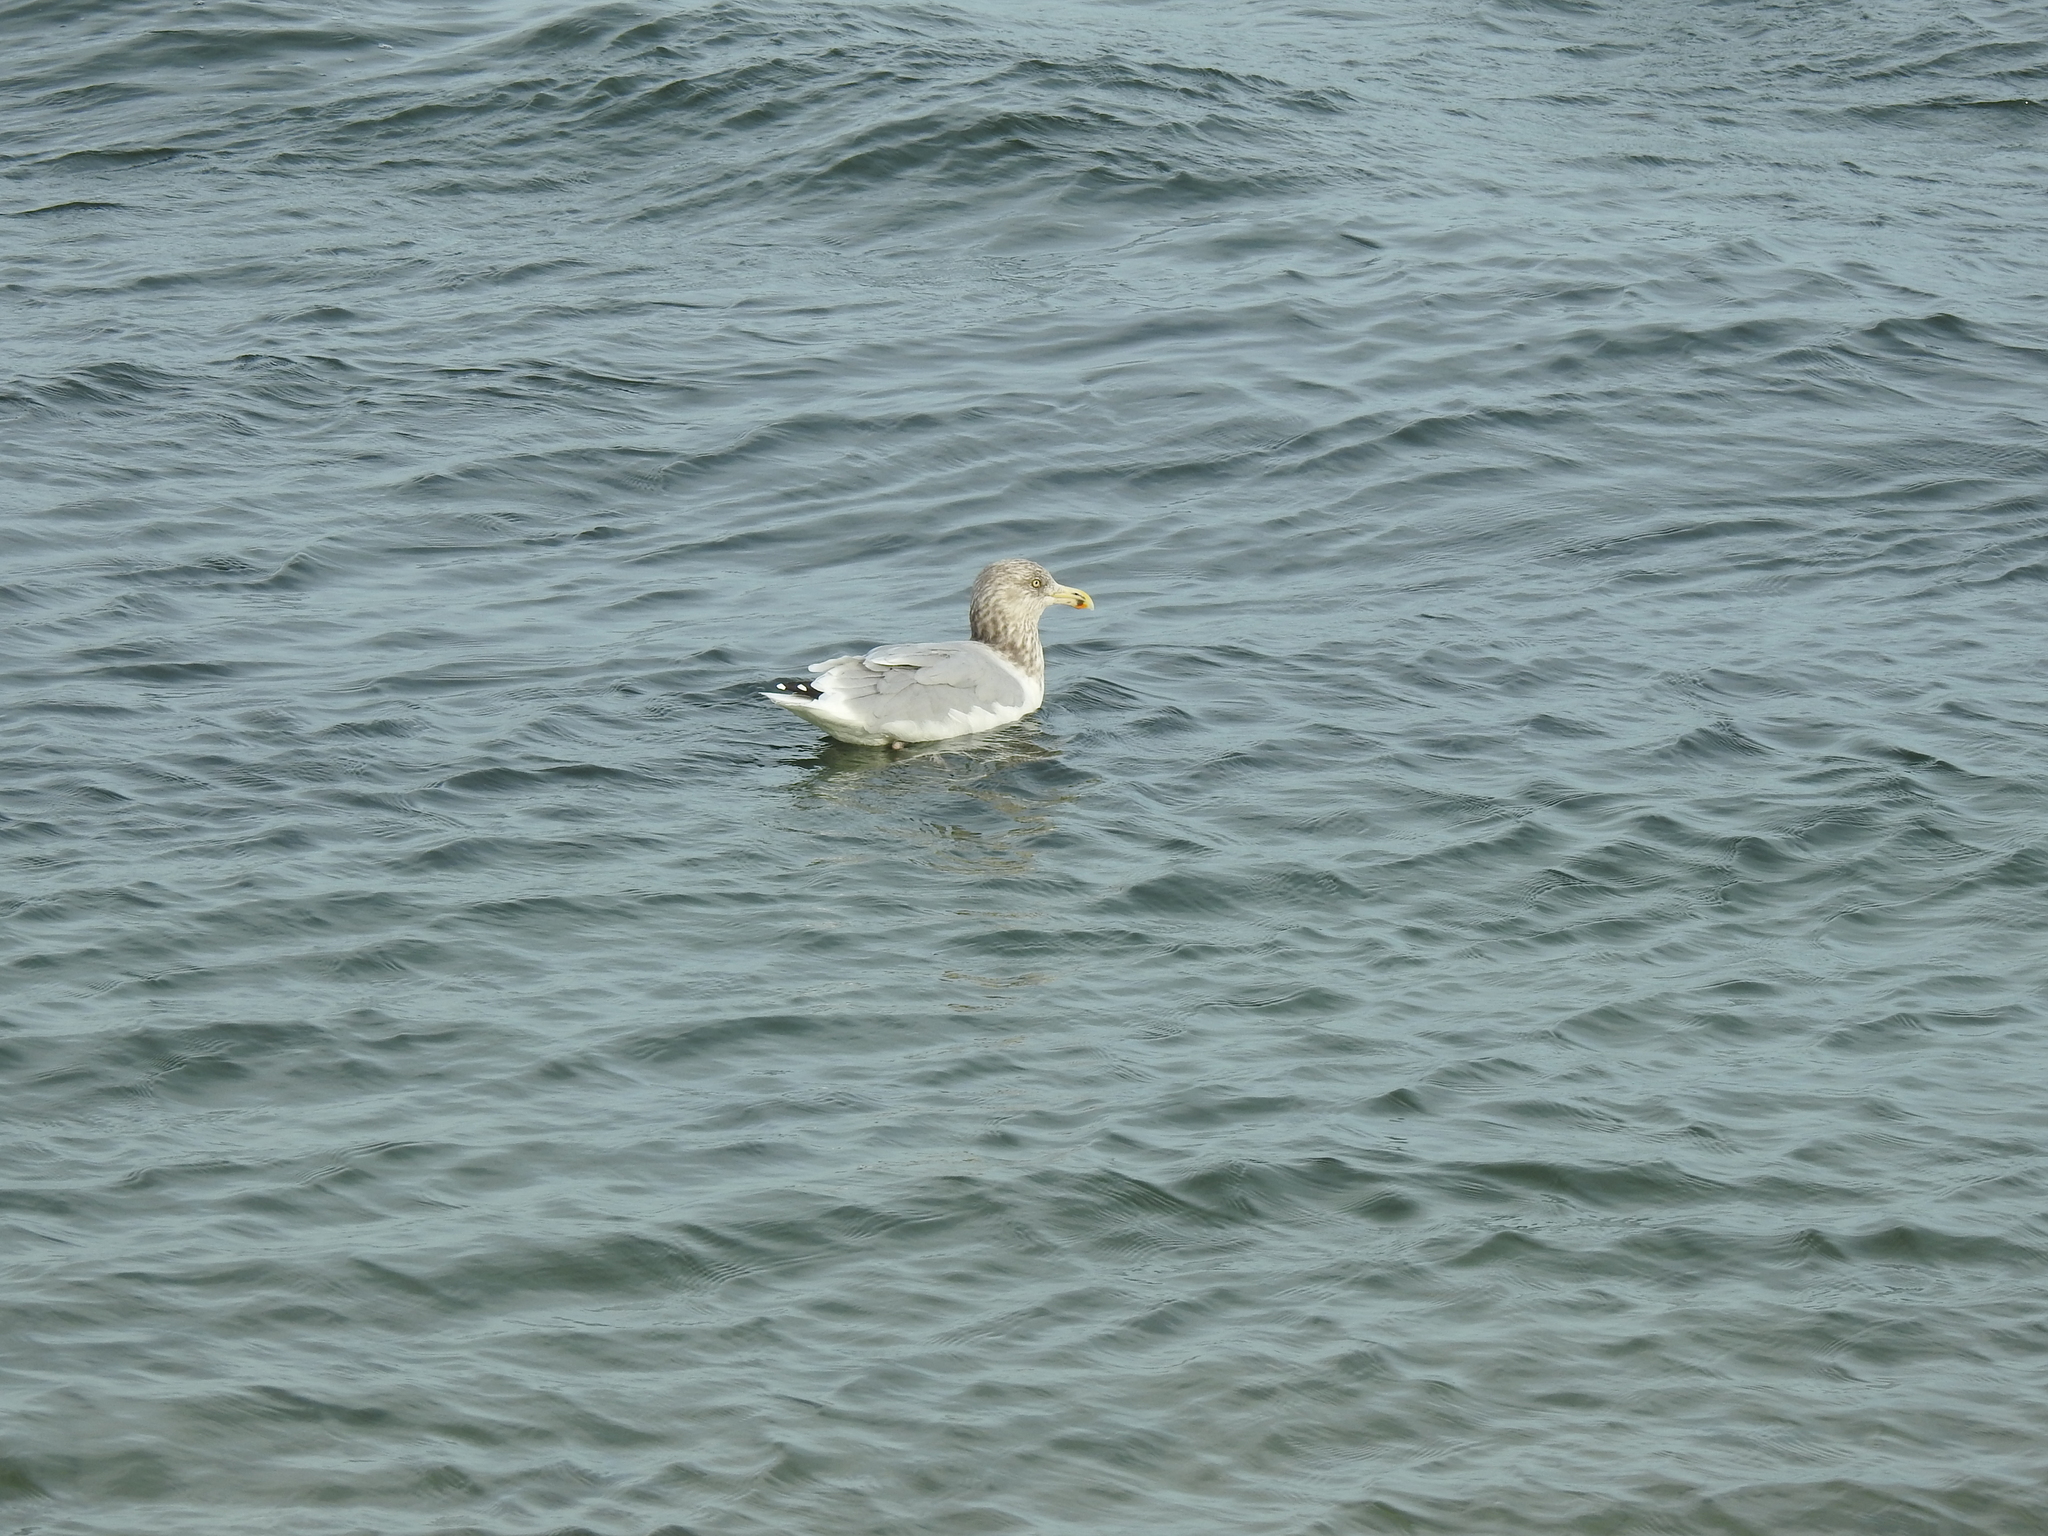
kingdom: Animalia
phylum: Chordata
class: Aves
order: Charadriiformes
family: Laridae
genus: Larus
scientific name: Larus argentatus
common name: Herring gull
